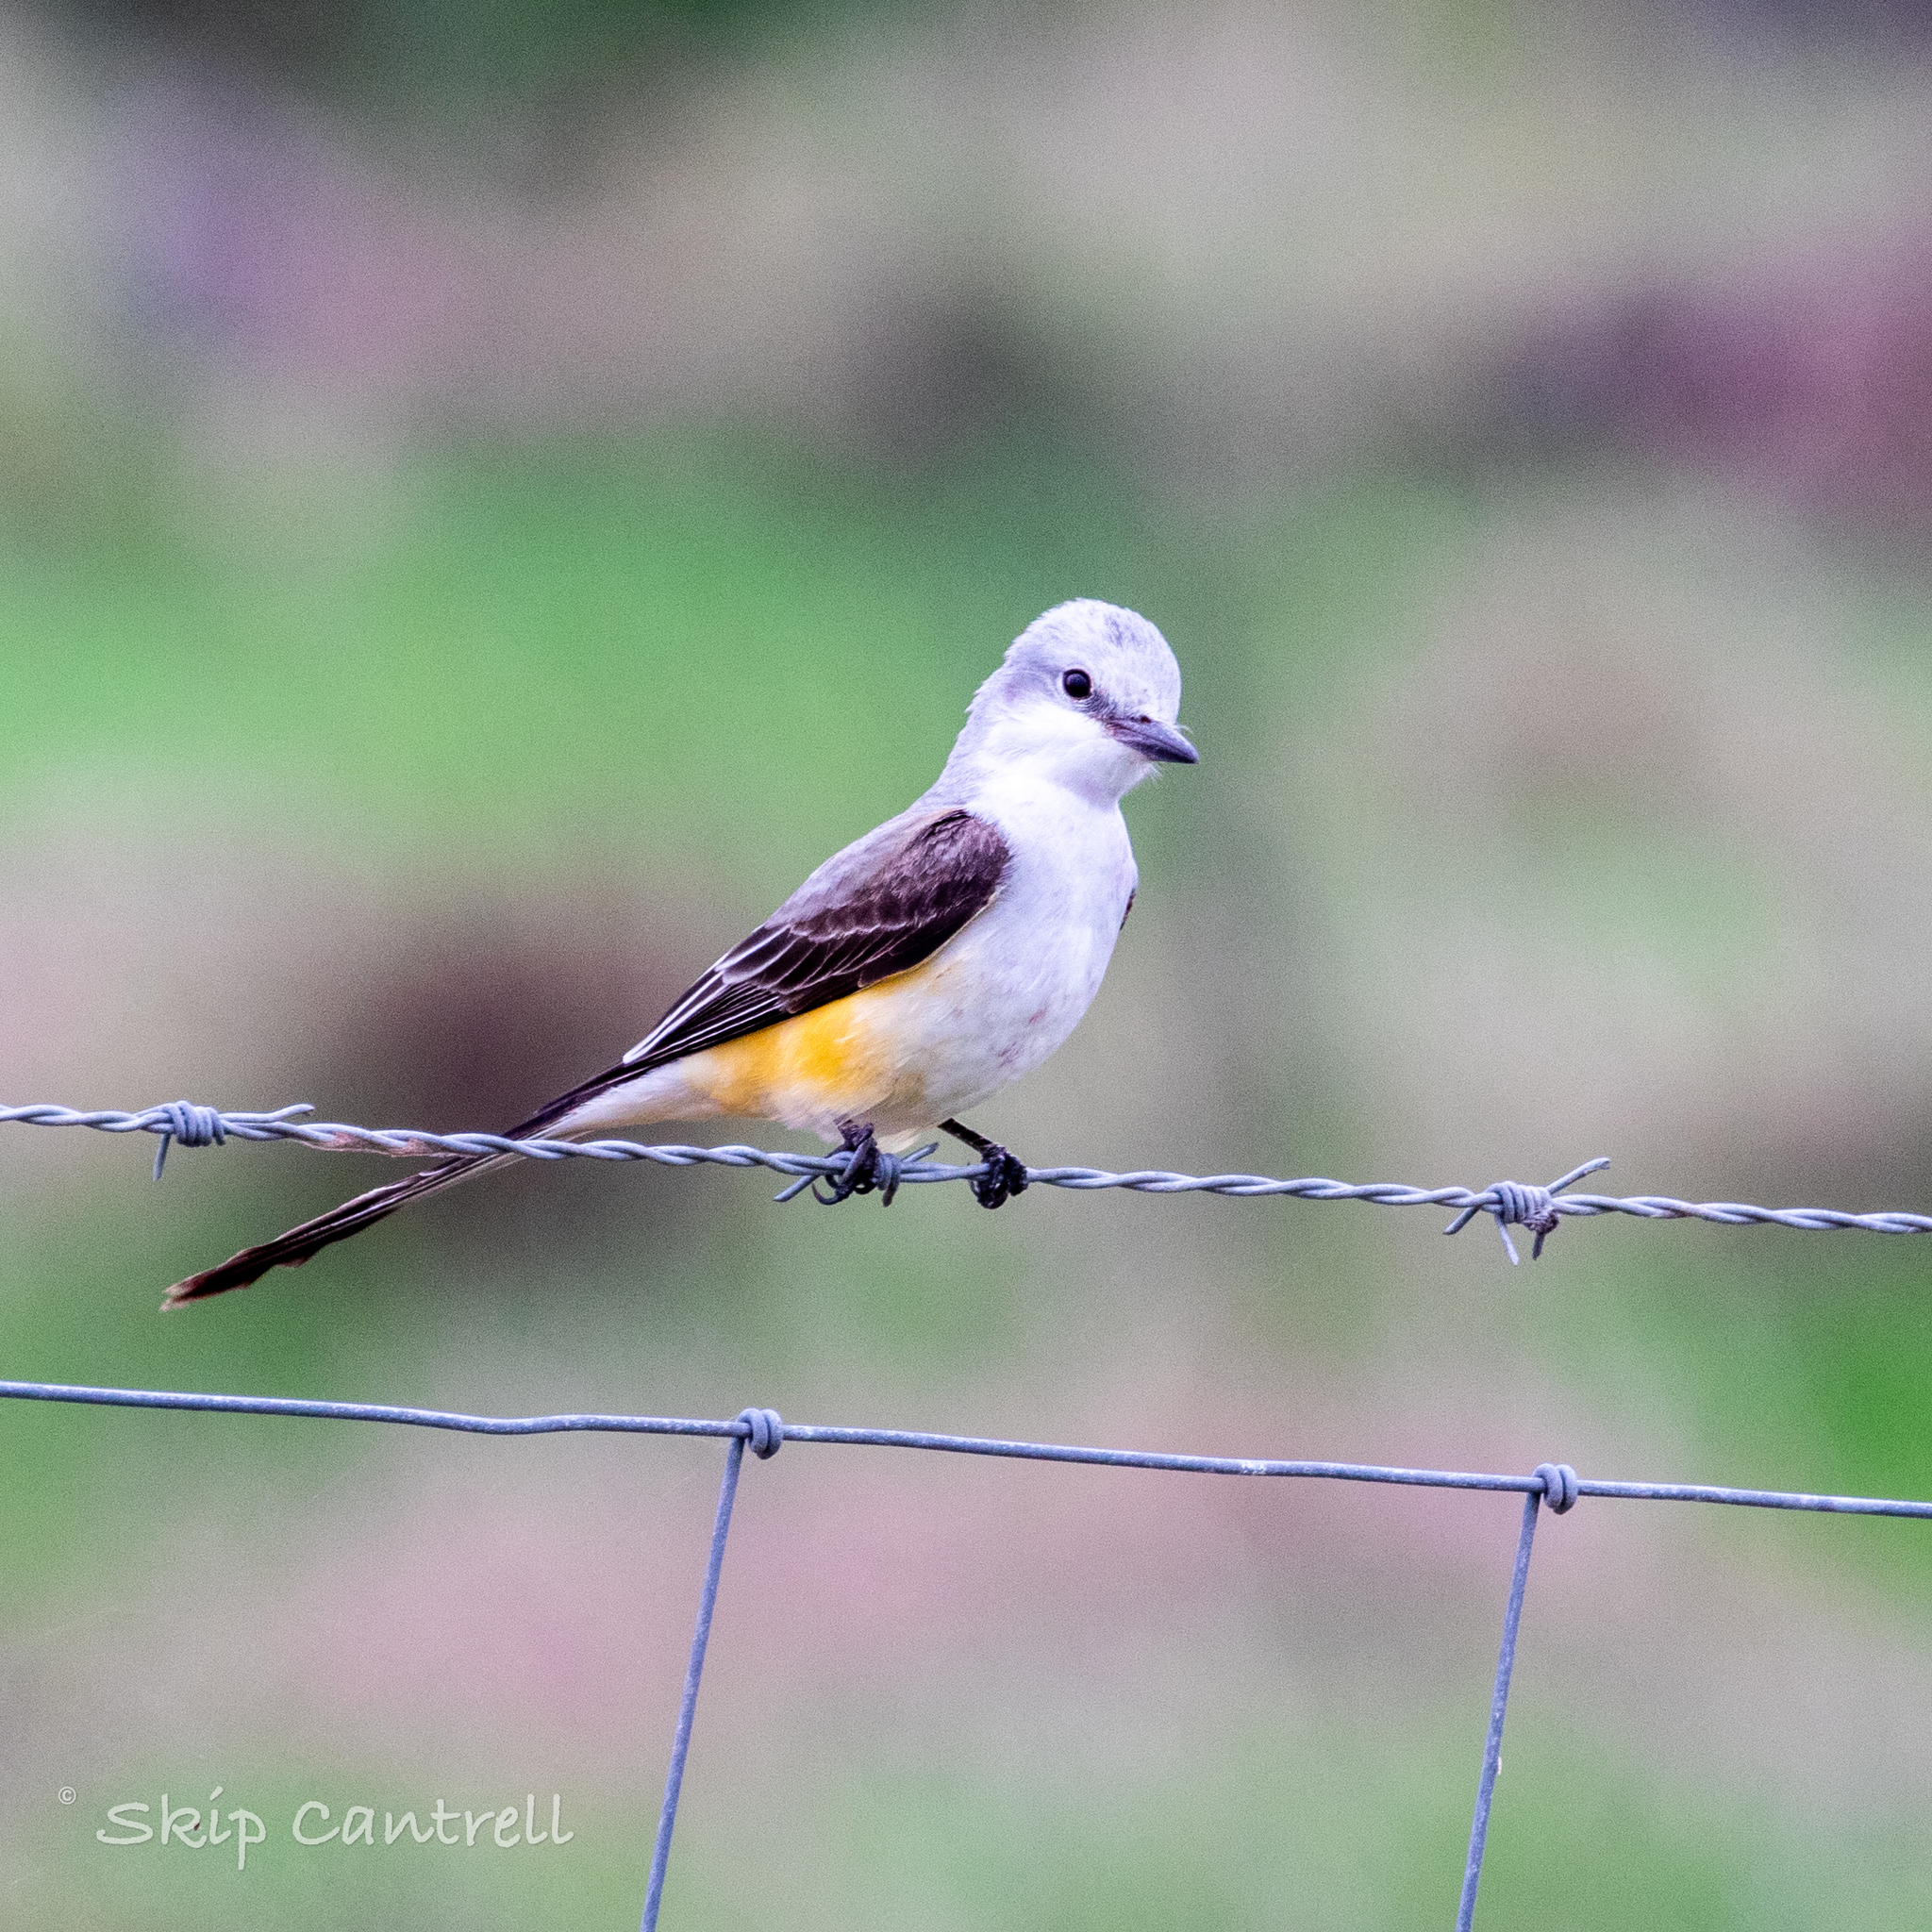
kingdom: Animalia
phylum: Chordata
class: Aves
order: Passeriformes
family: Tyrannidae
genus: Tyrannus
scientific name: Tyrannus forficatus
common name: Scissor-tailed flycatcher
